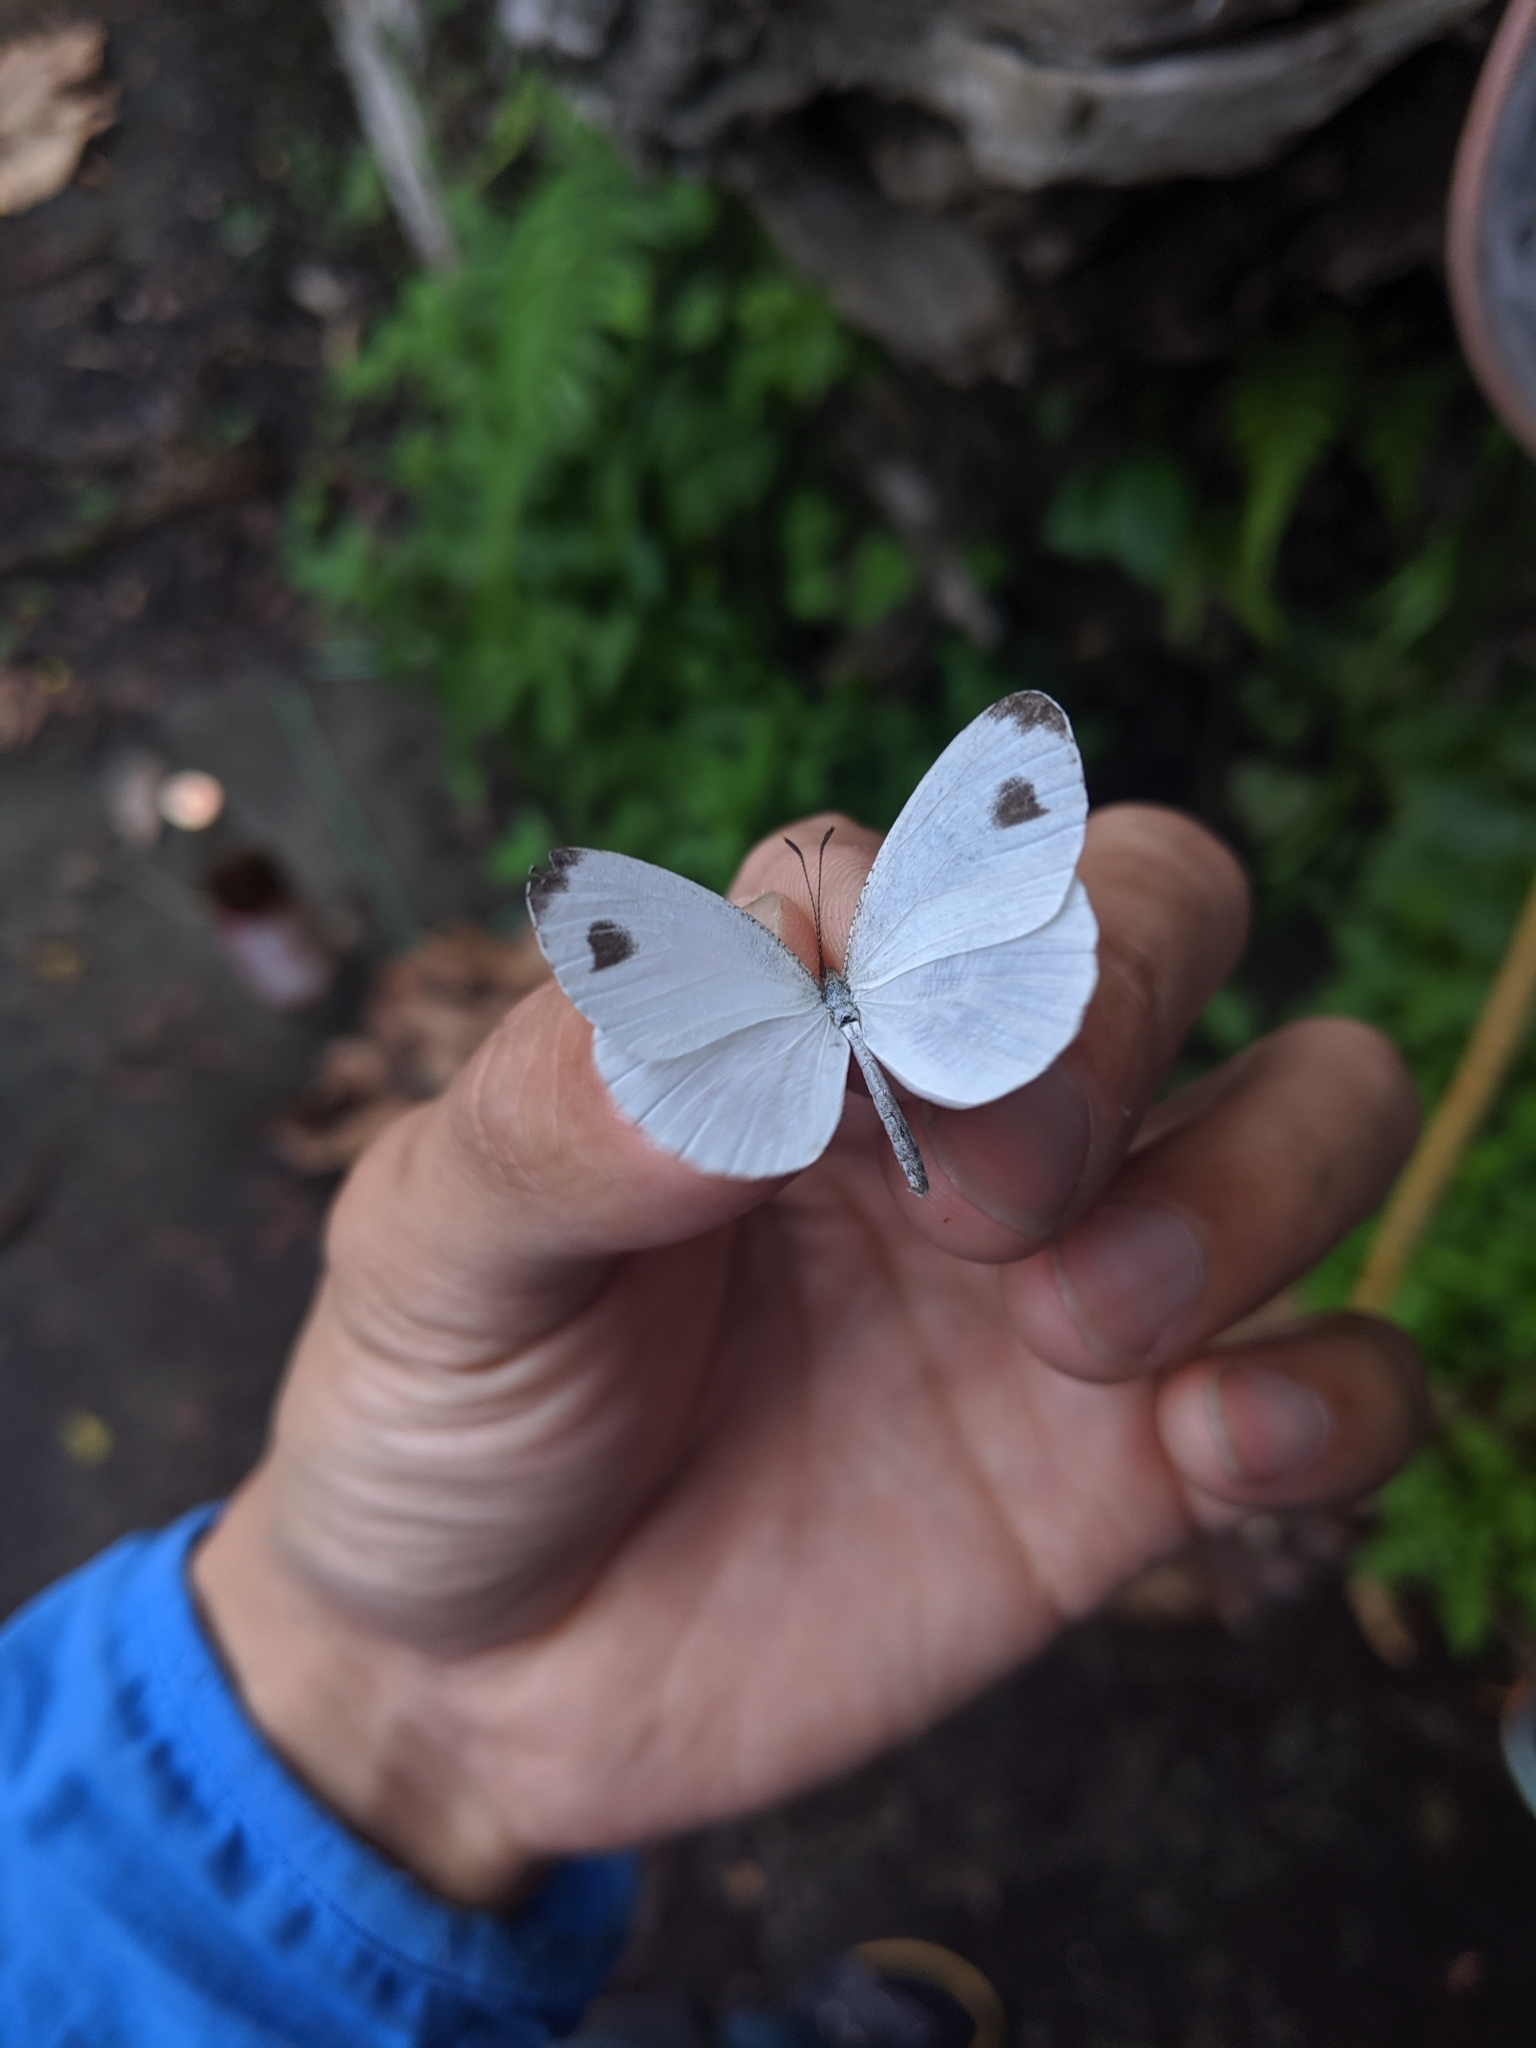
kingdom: Animalia
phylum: Arthropoda
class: Insecta
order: Lepidoptera
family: Pieridae
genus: Leptosia
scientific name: Leptosia nina
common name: Psyche
